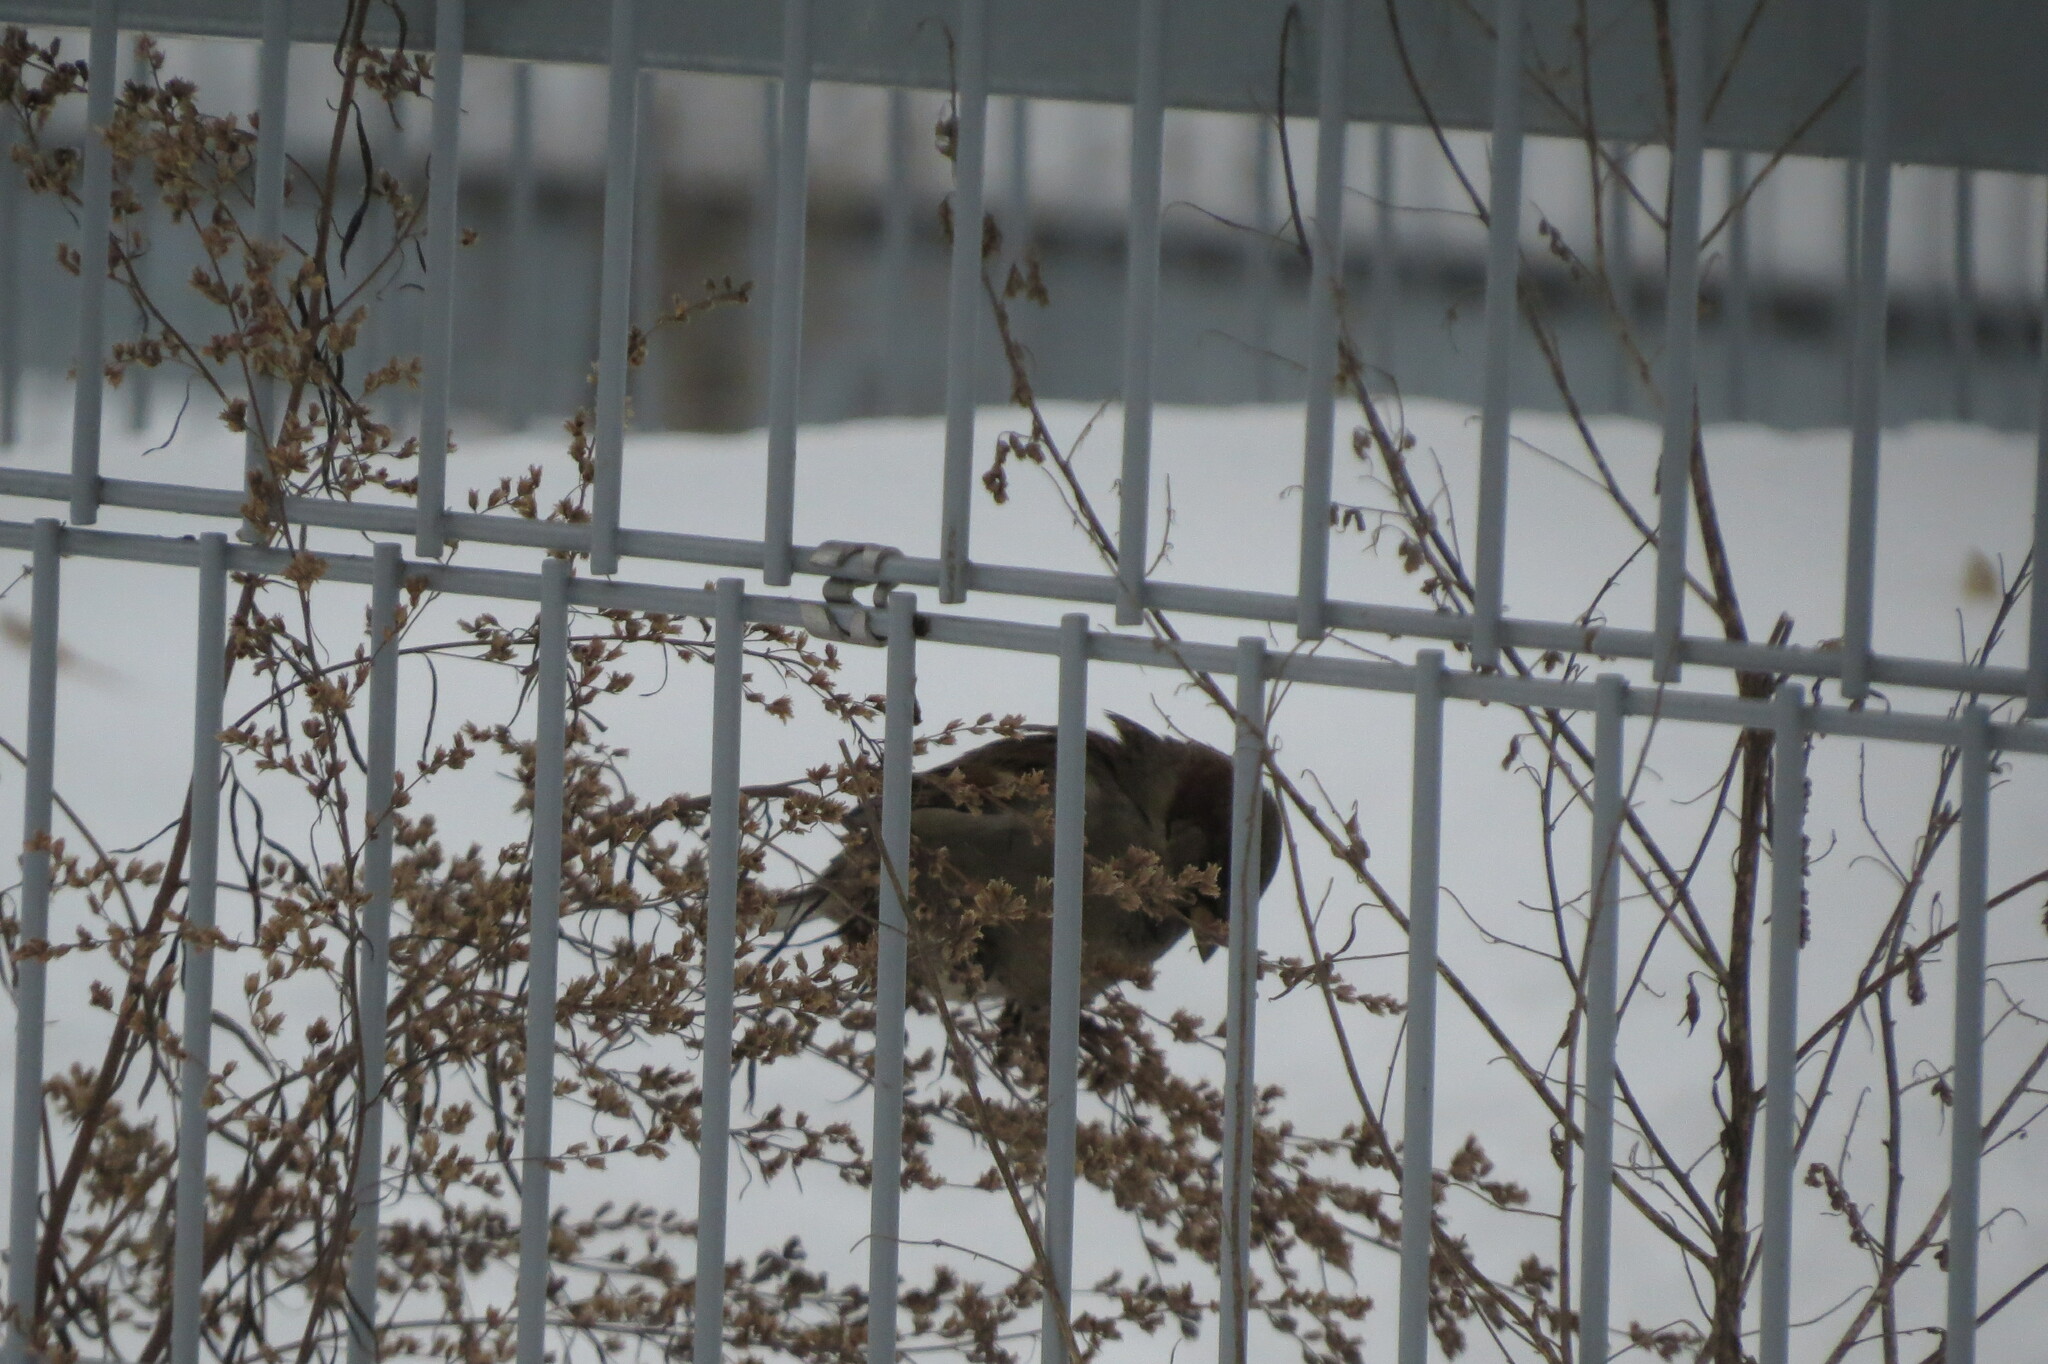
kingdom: Animalia
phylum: Chordata
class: Aves
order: Passeriformes
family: Passeridae
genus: Passer
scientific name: Passer domesticus
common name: House sparrow
